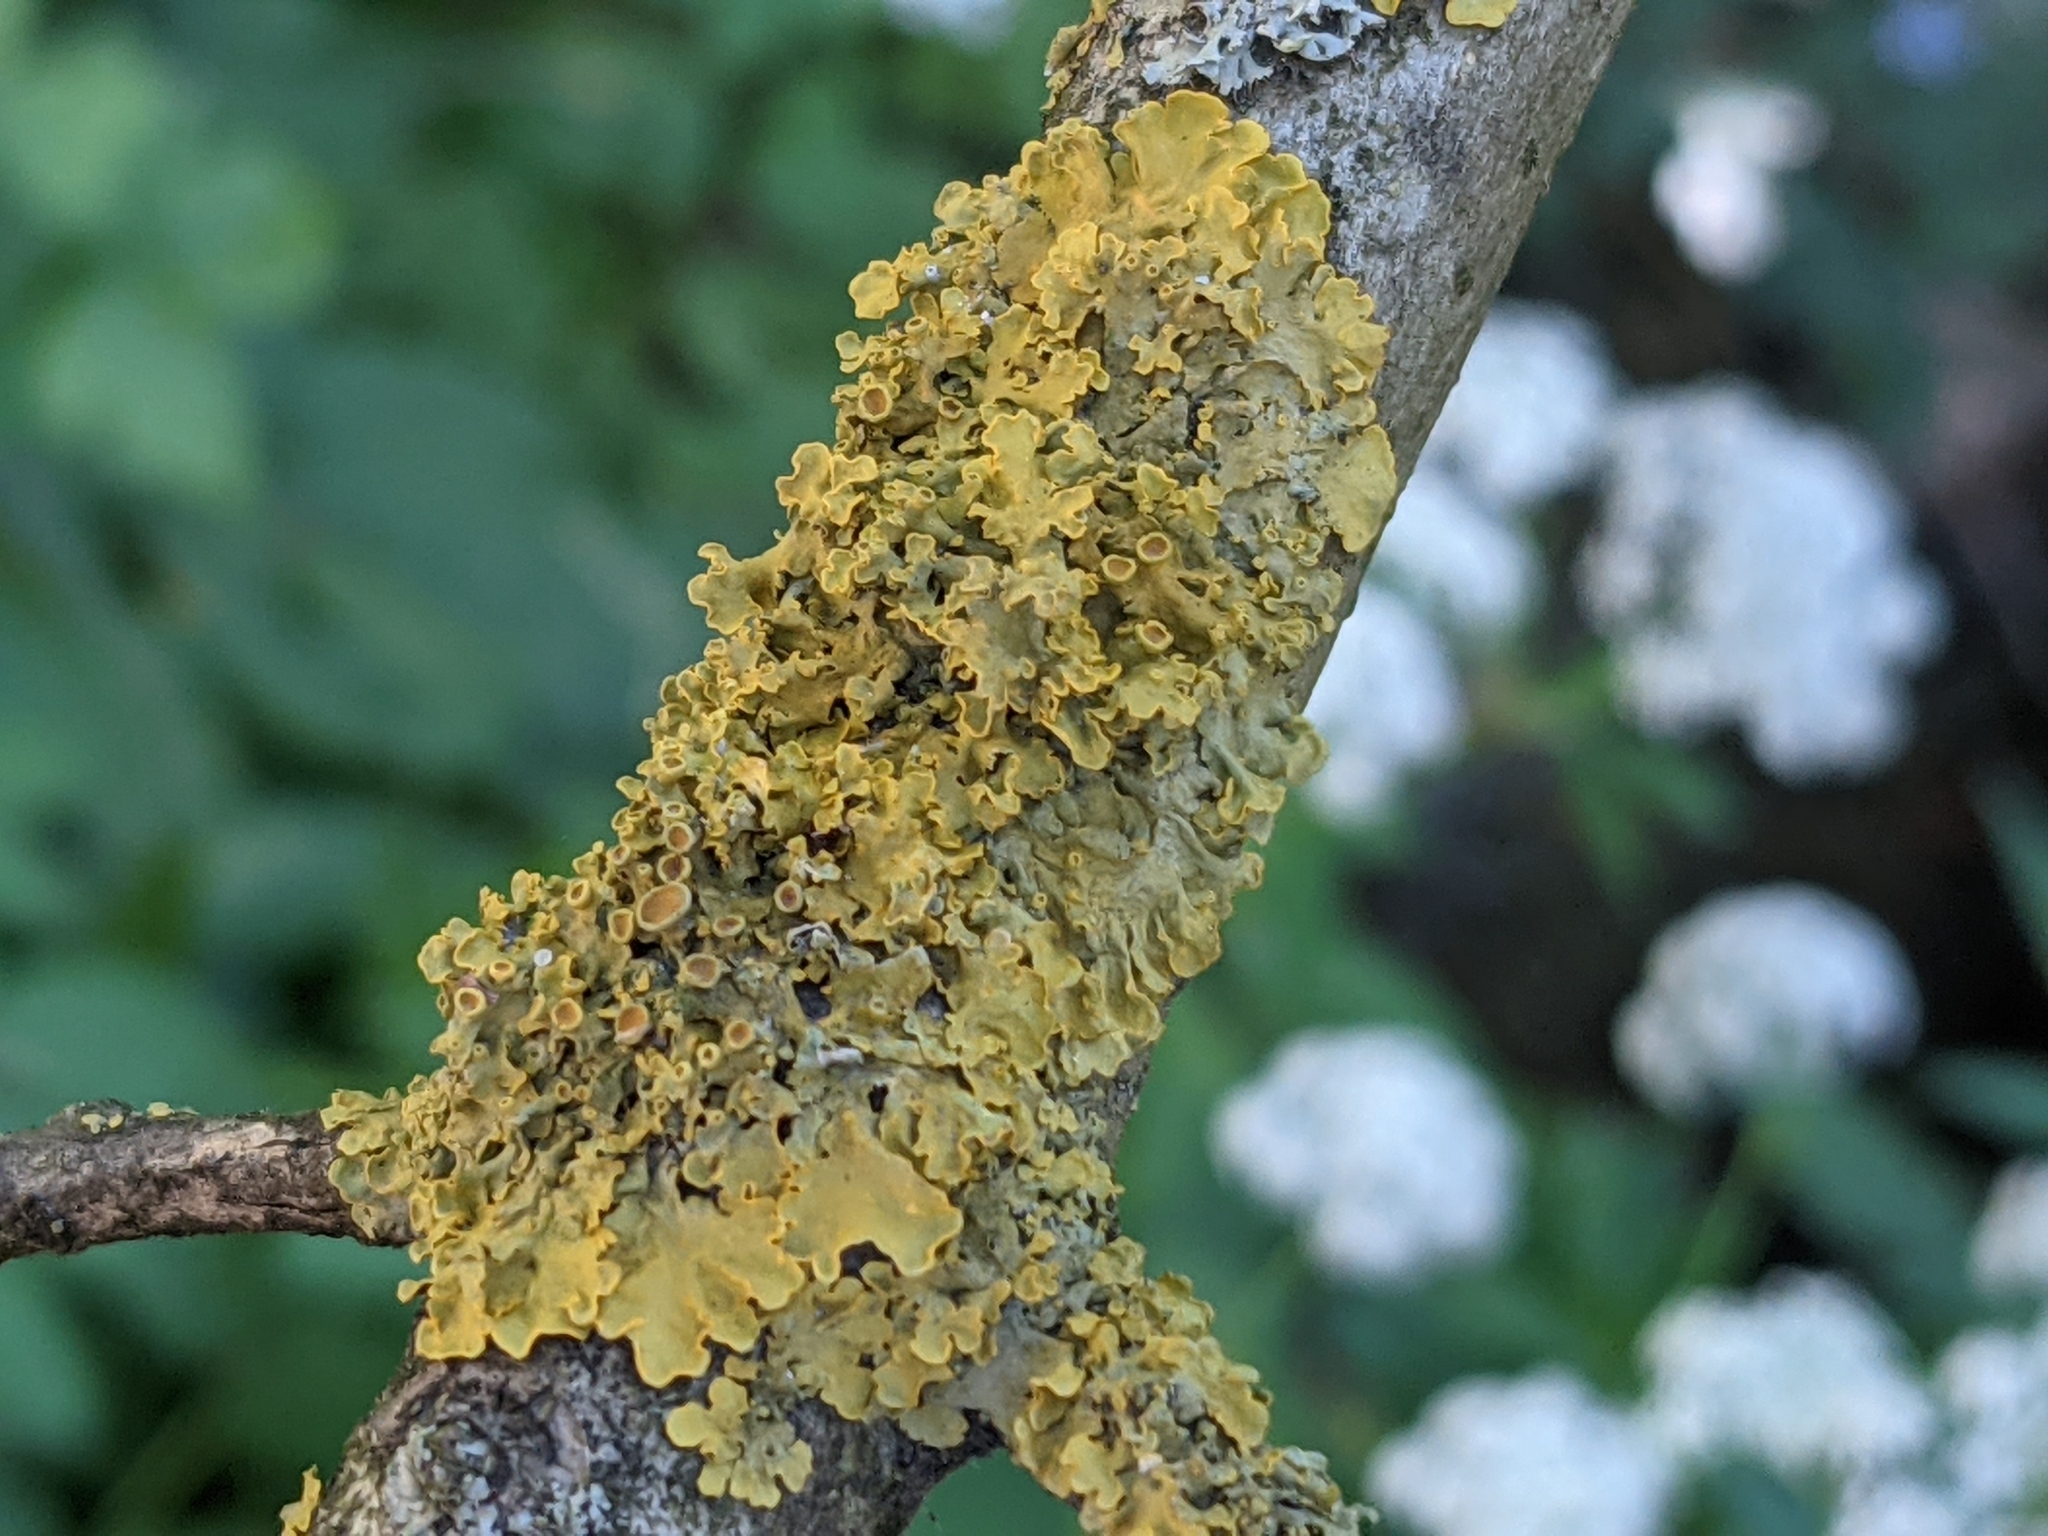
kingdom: Fungi
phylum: Ascomycota
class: Lecanoromycetes
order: Teloschistales
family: Teloschistaceae
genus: Xanthoria
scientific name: Xanthoria parietina
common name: Common orange lichen
